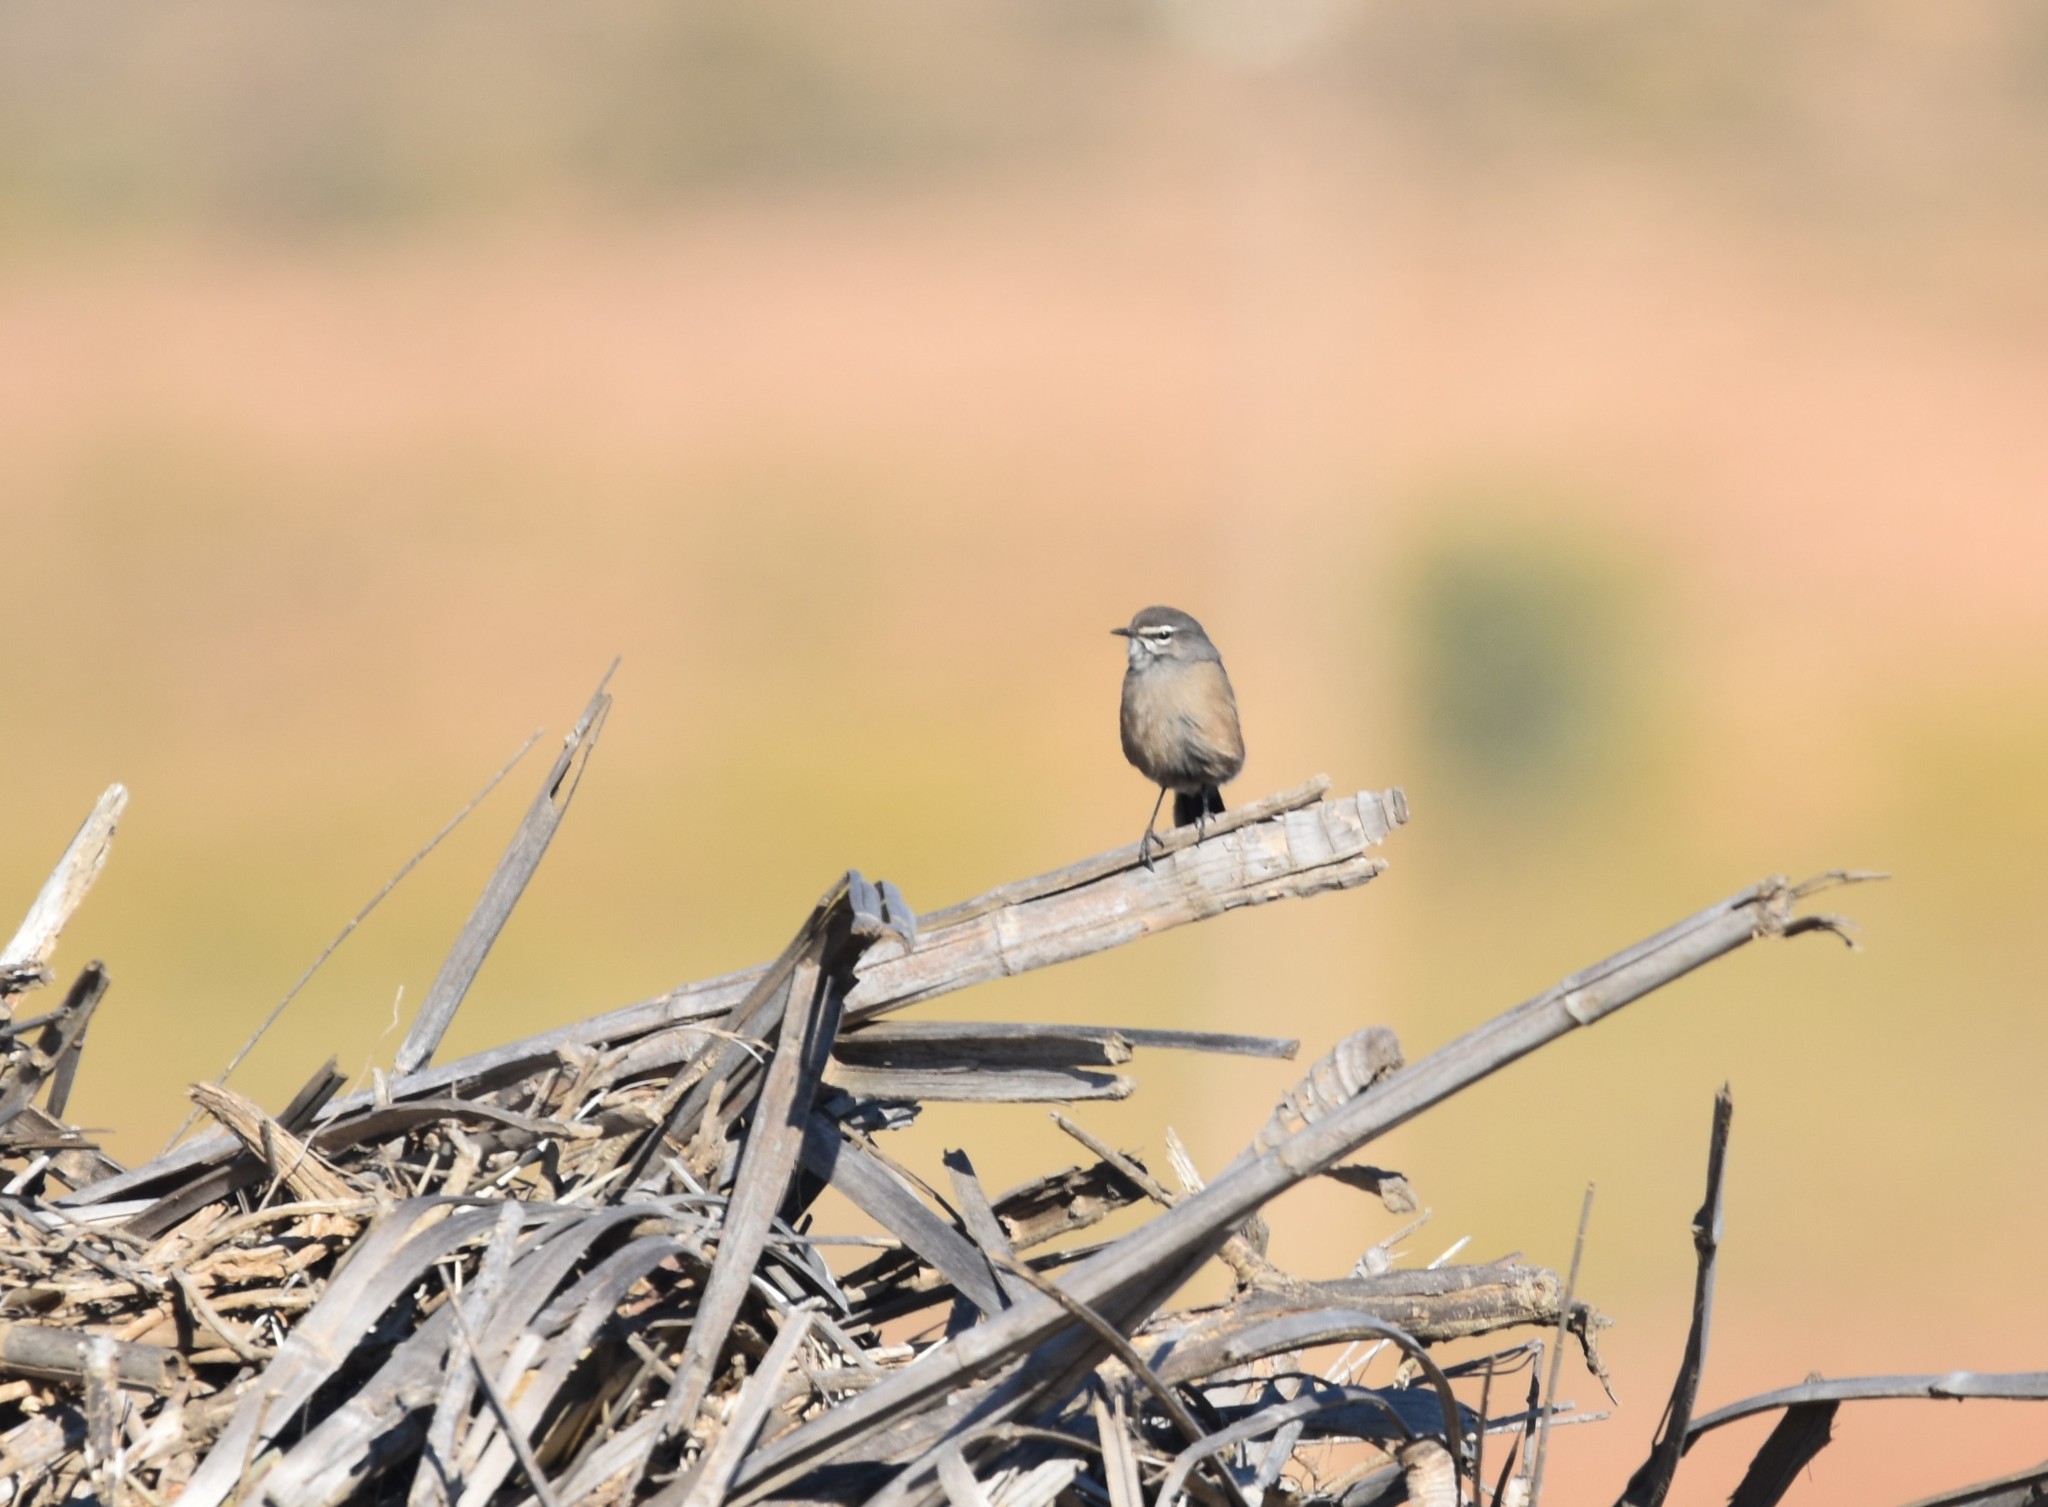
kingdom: Animalia
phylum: Chordata
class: Aves
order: Passeriformes
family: Muscicapidae
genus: Erythropygia
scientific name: Erythropygia coryphoeus
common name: Karoo scrub robin
